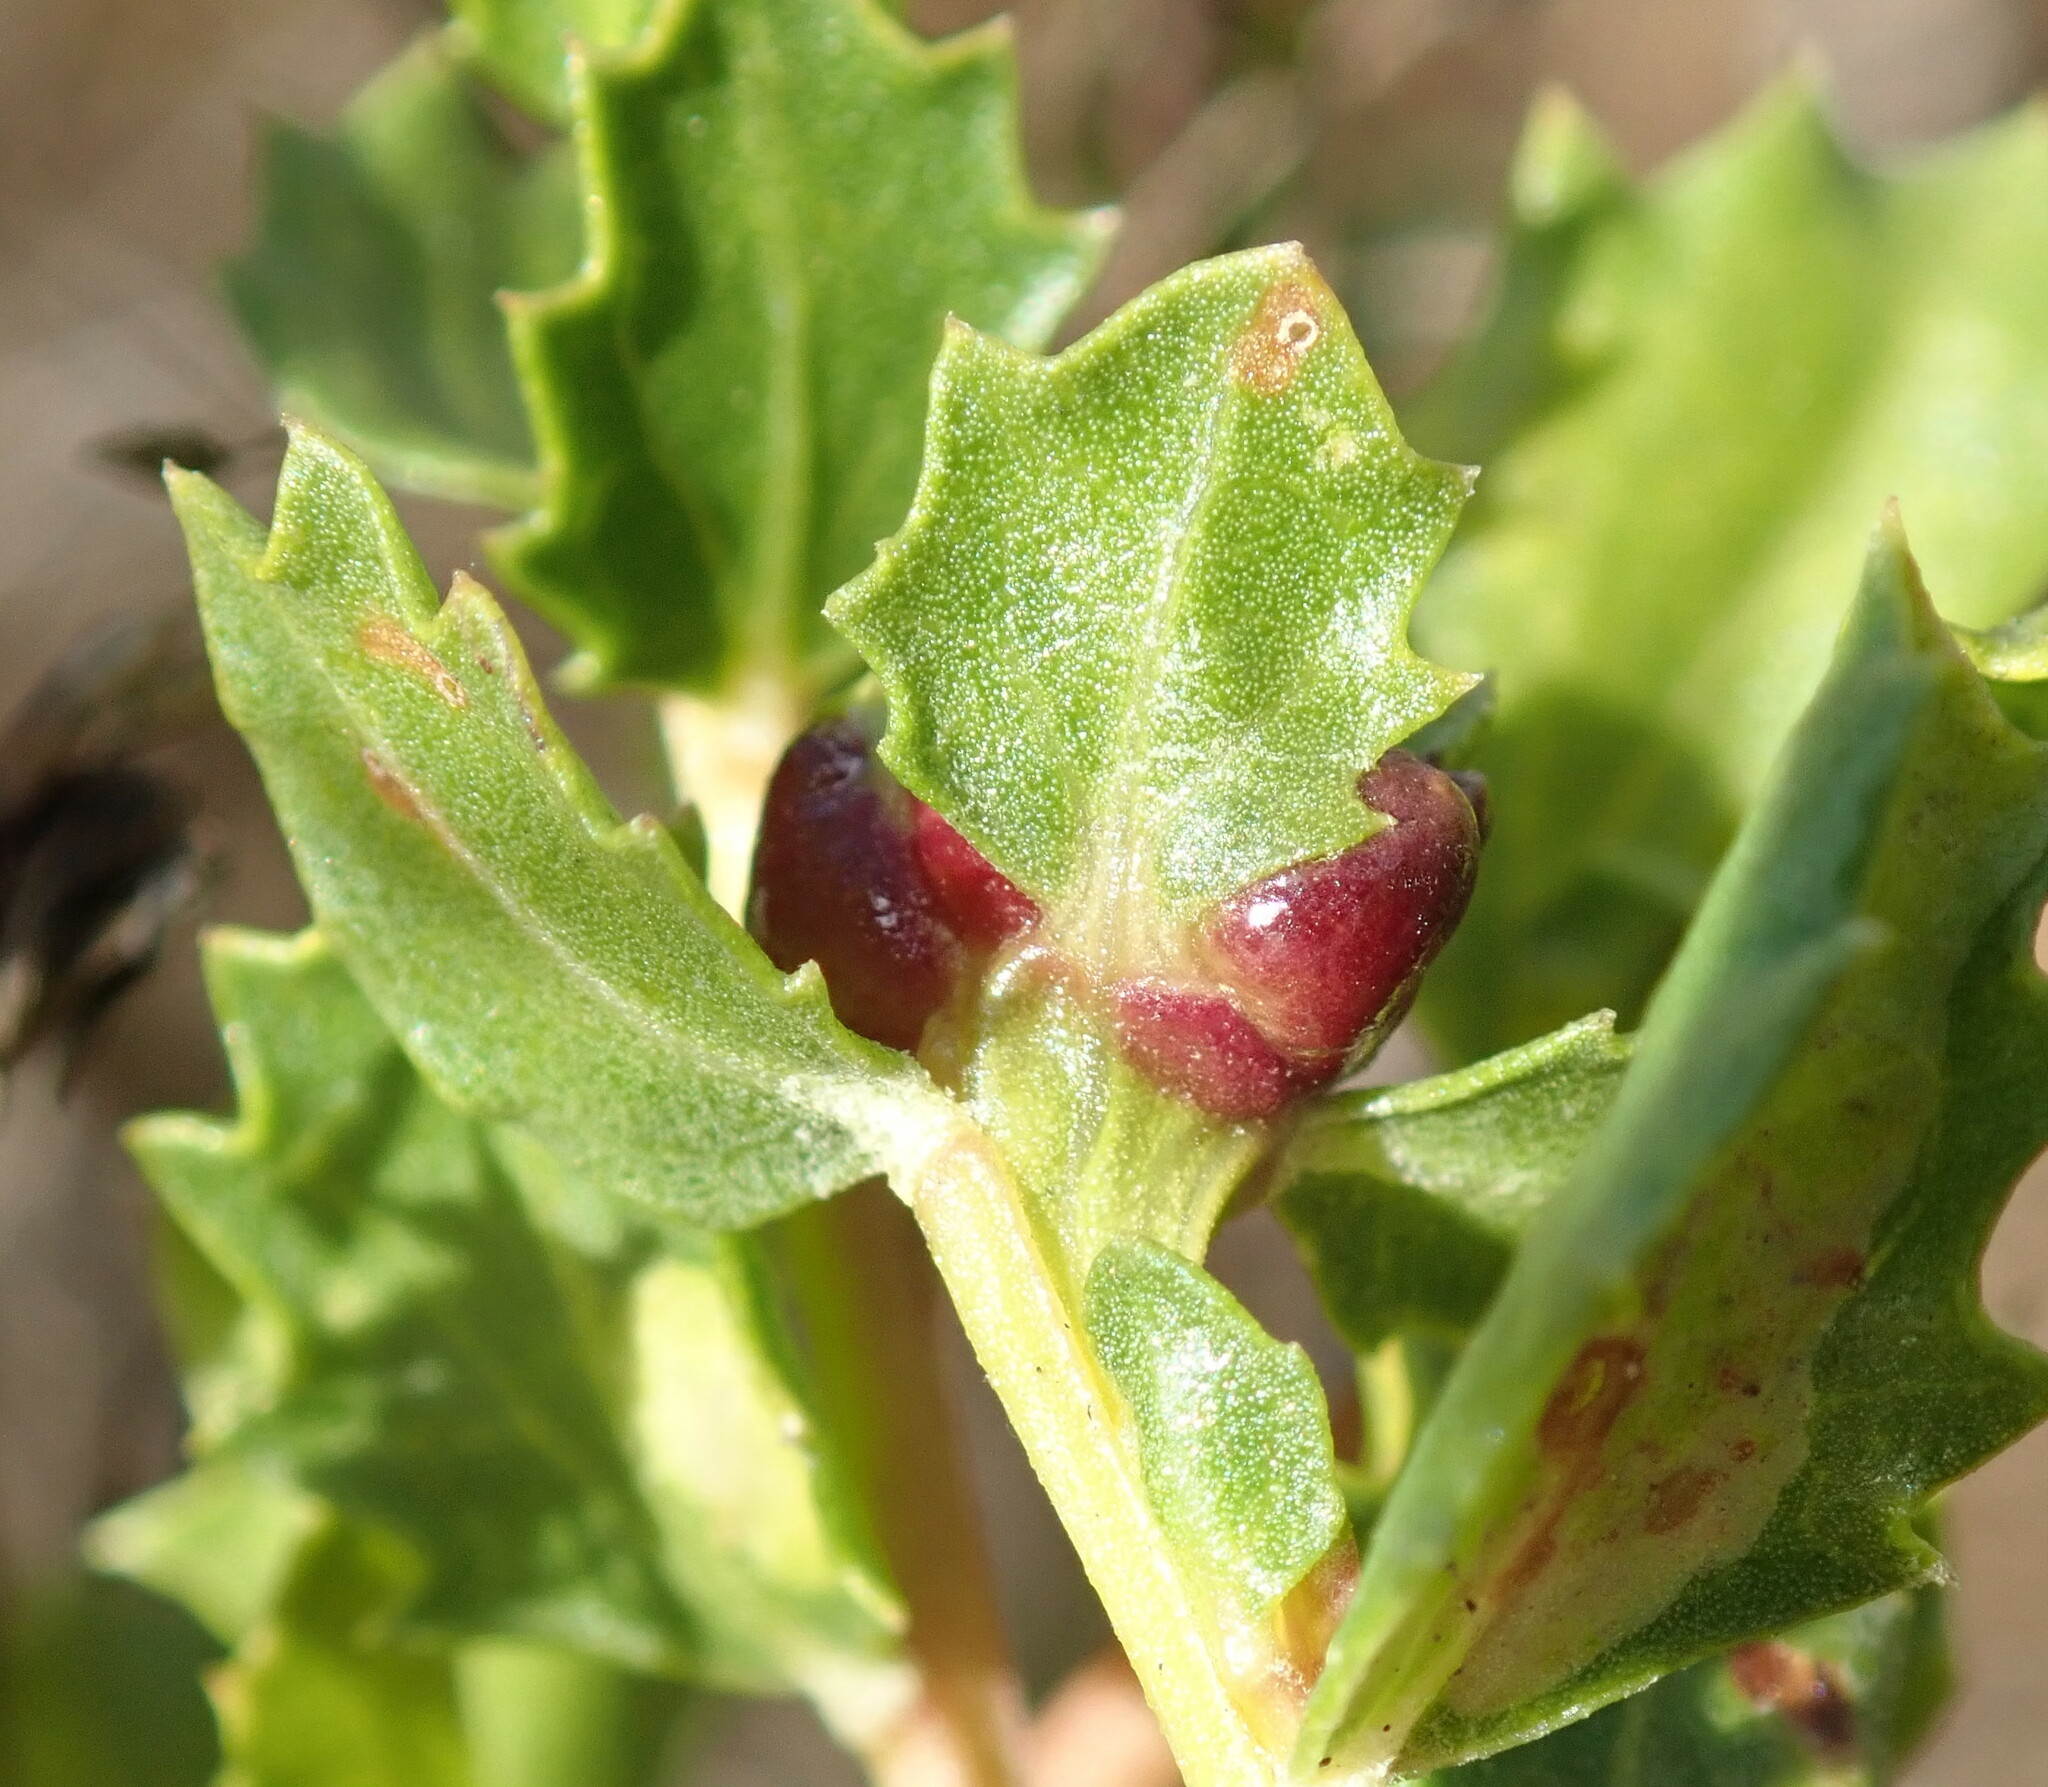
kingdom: Animalia
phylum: Arthropoda
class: Insecta
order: Diptera
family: Cecidomyiidae
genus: Rhopalomyia
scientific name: Rhopalomyia californica
